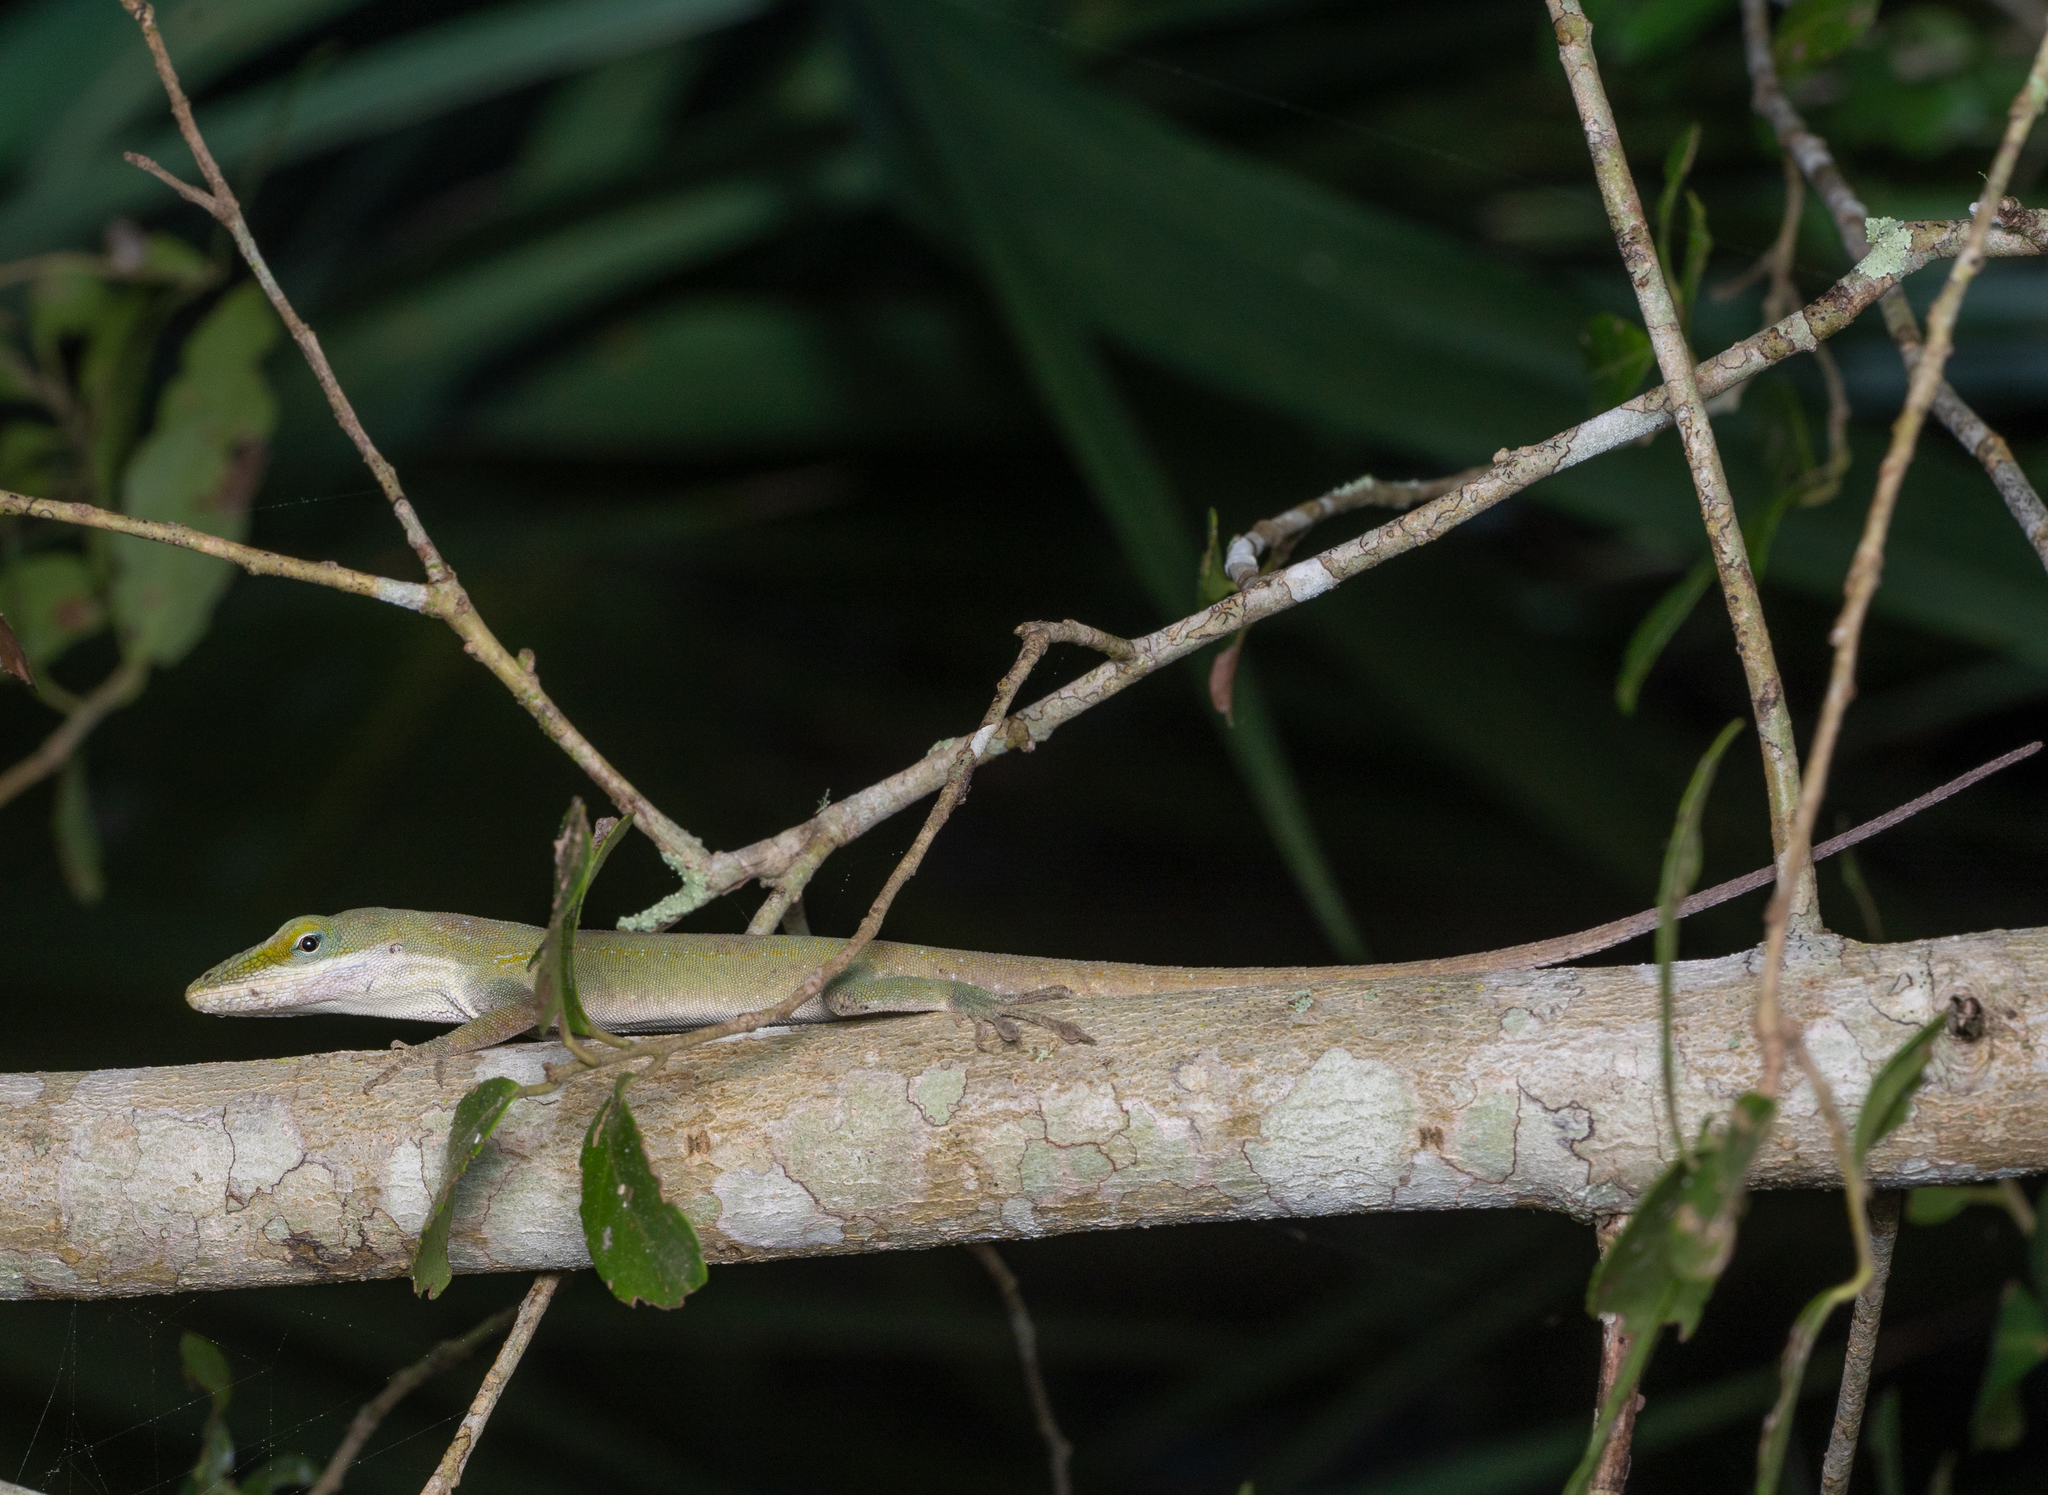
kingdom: Animalia
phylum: Chordata
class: Squamata
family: Dactyloidae
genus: Anolis
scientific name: Anolis carolinensis
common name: Green anole
